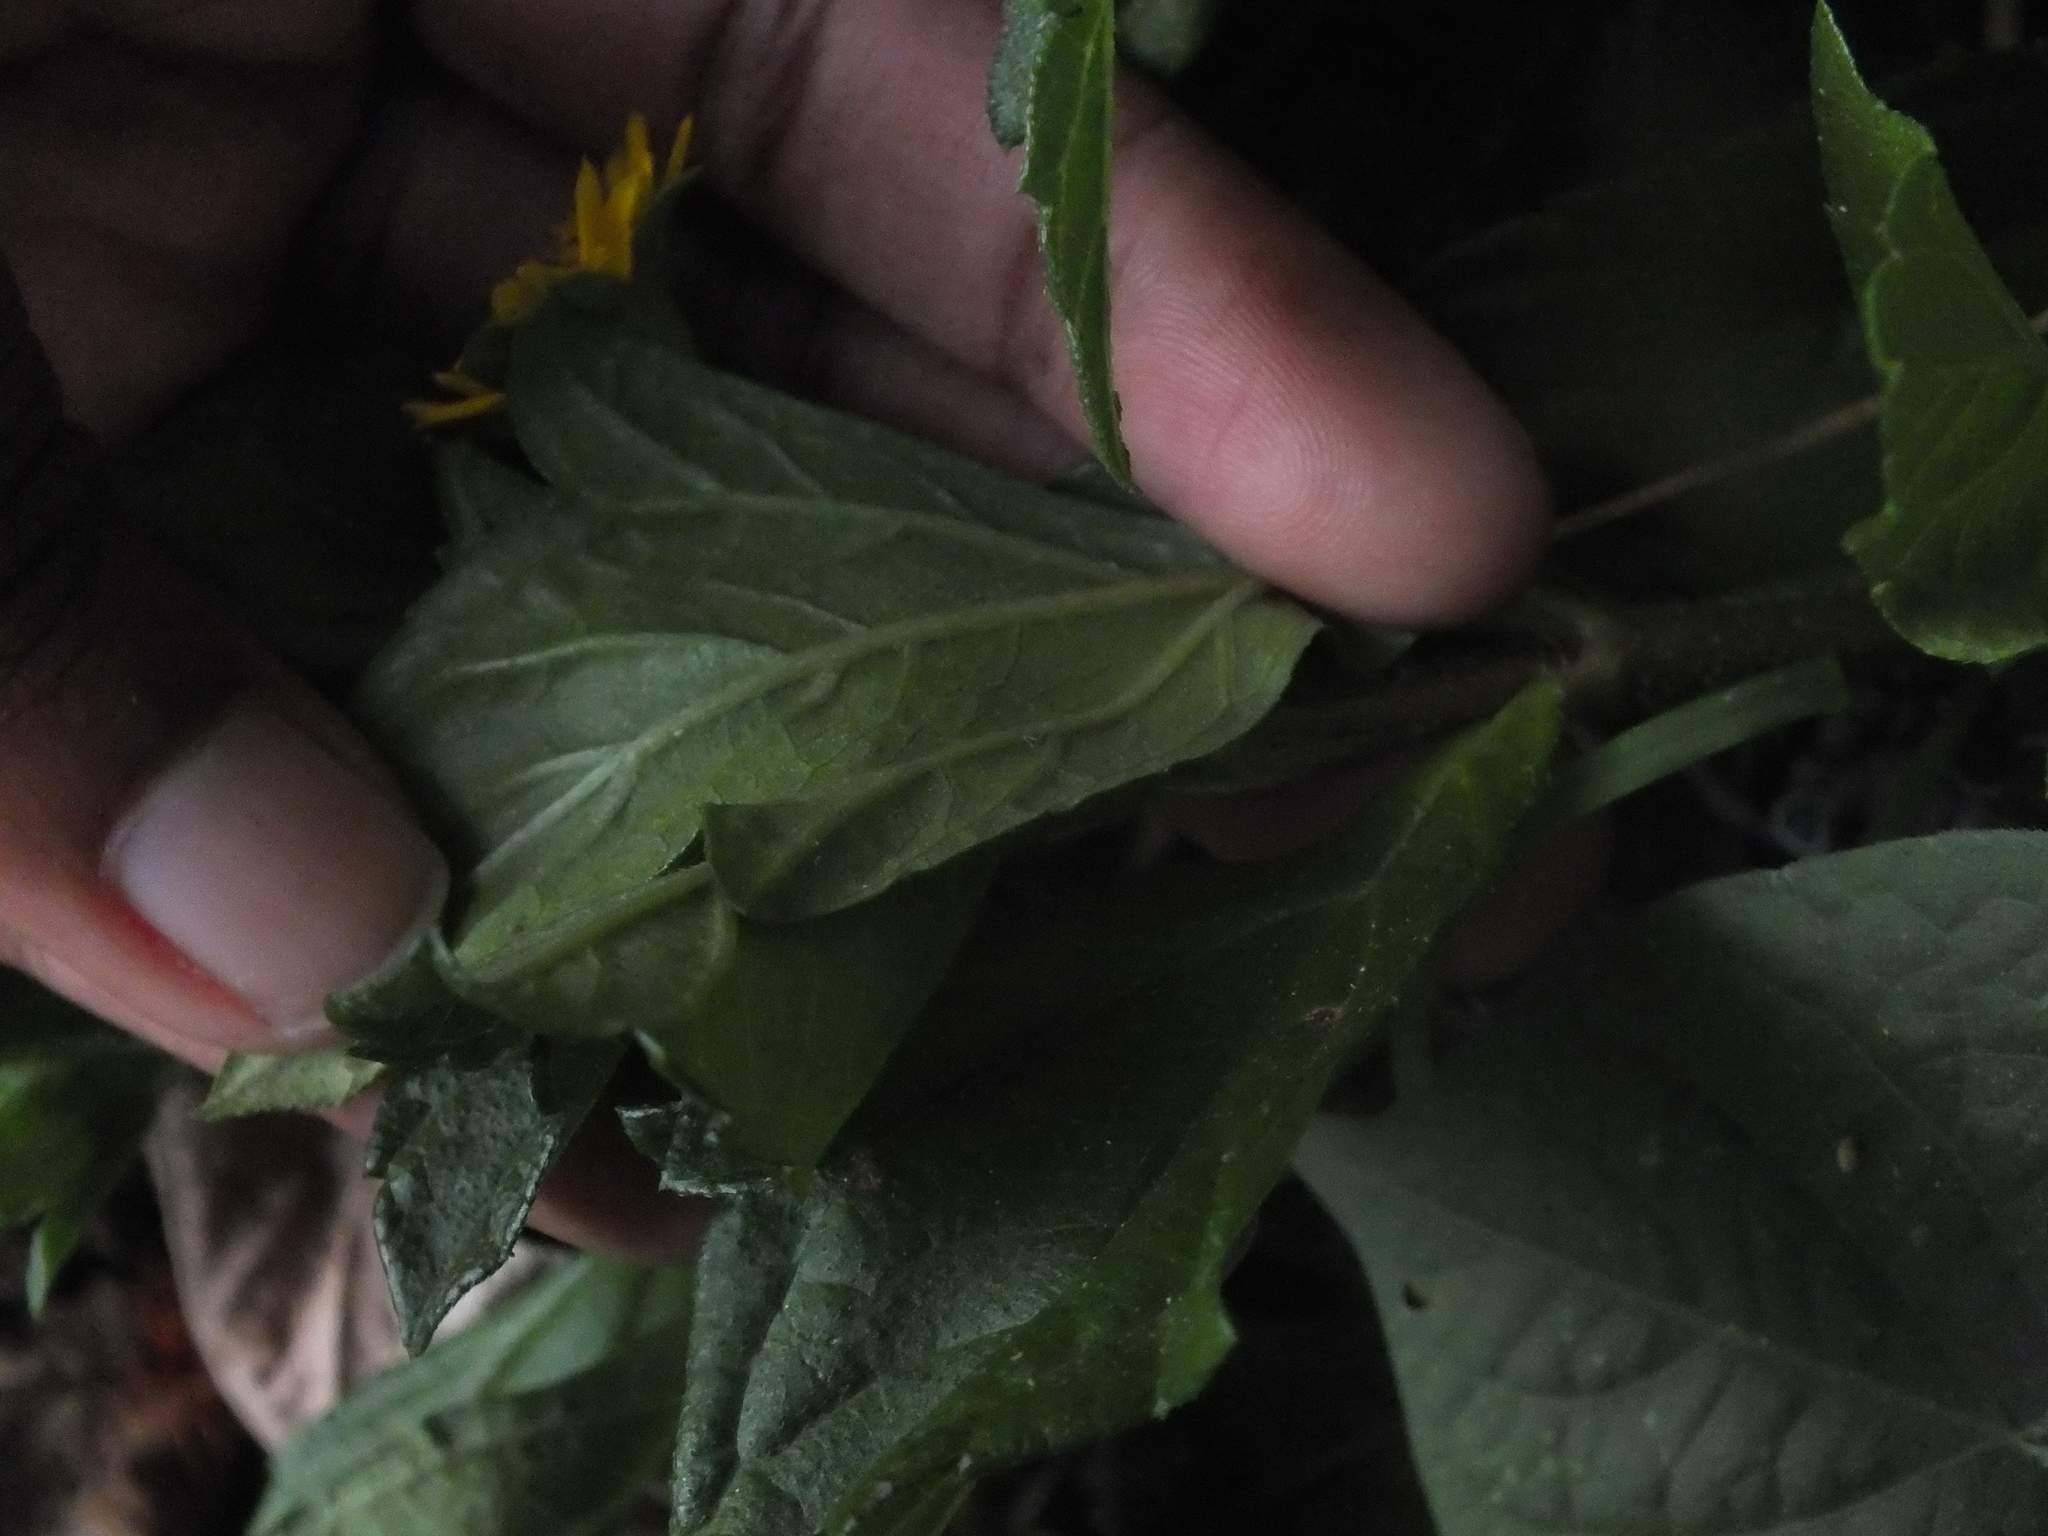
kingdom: Plantae
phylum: Tracheophyta
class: Magnoliopsida
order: Asterales
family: Asteraceae
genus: Sphagneticola
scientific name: Sphagneticola trilobata
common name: Bay biscayne creeping-oxeye
